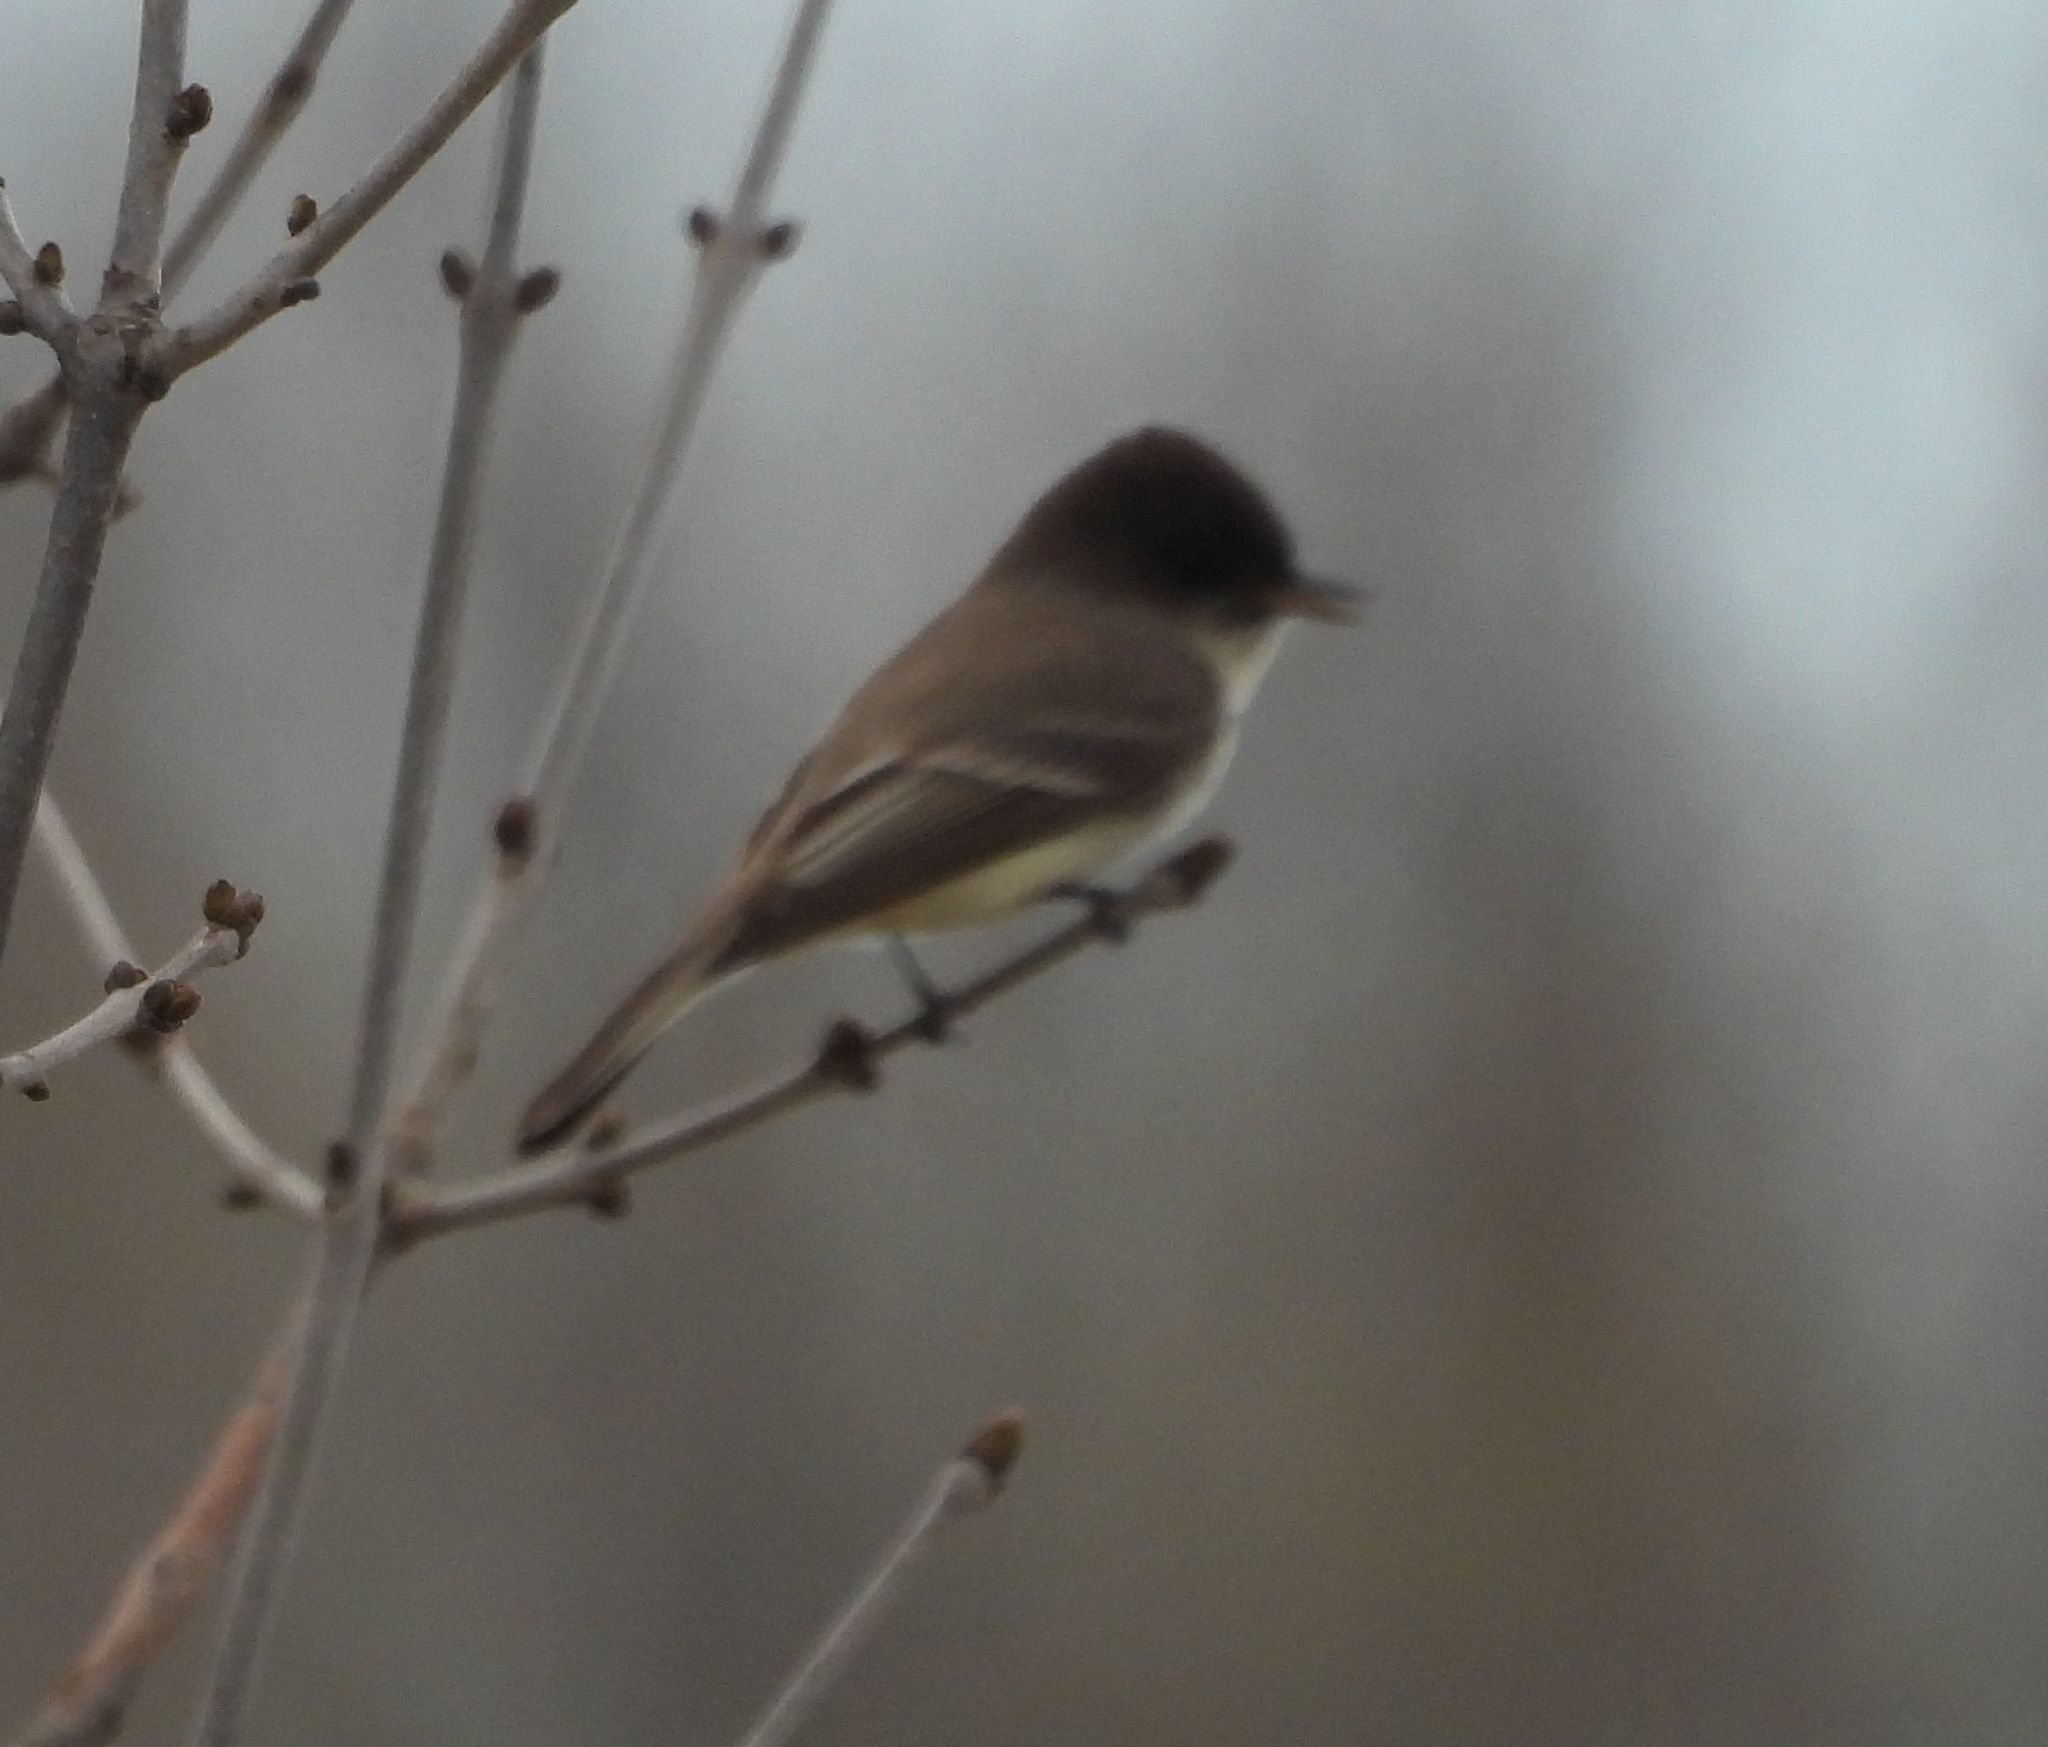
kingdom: Animalia
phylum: Chordata
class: Aves
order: Passeriformes
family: Tyrannidae
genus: Sayornis
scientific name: Sayornis phoebe
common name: Eastern phoebe
